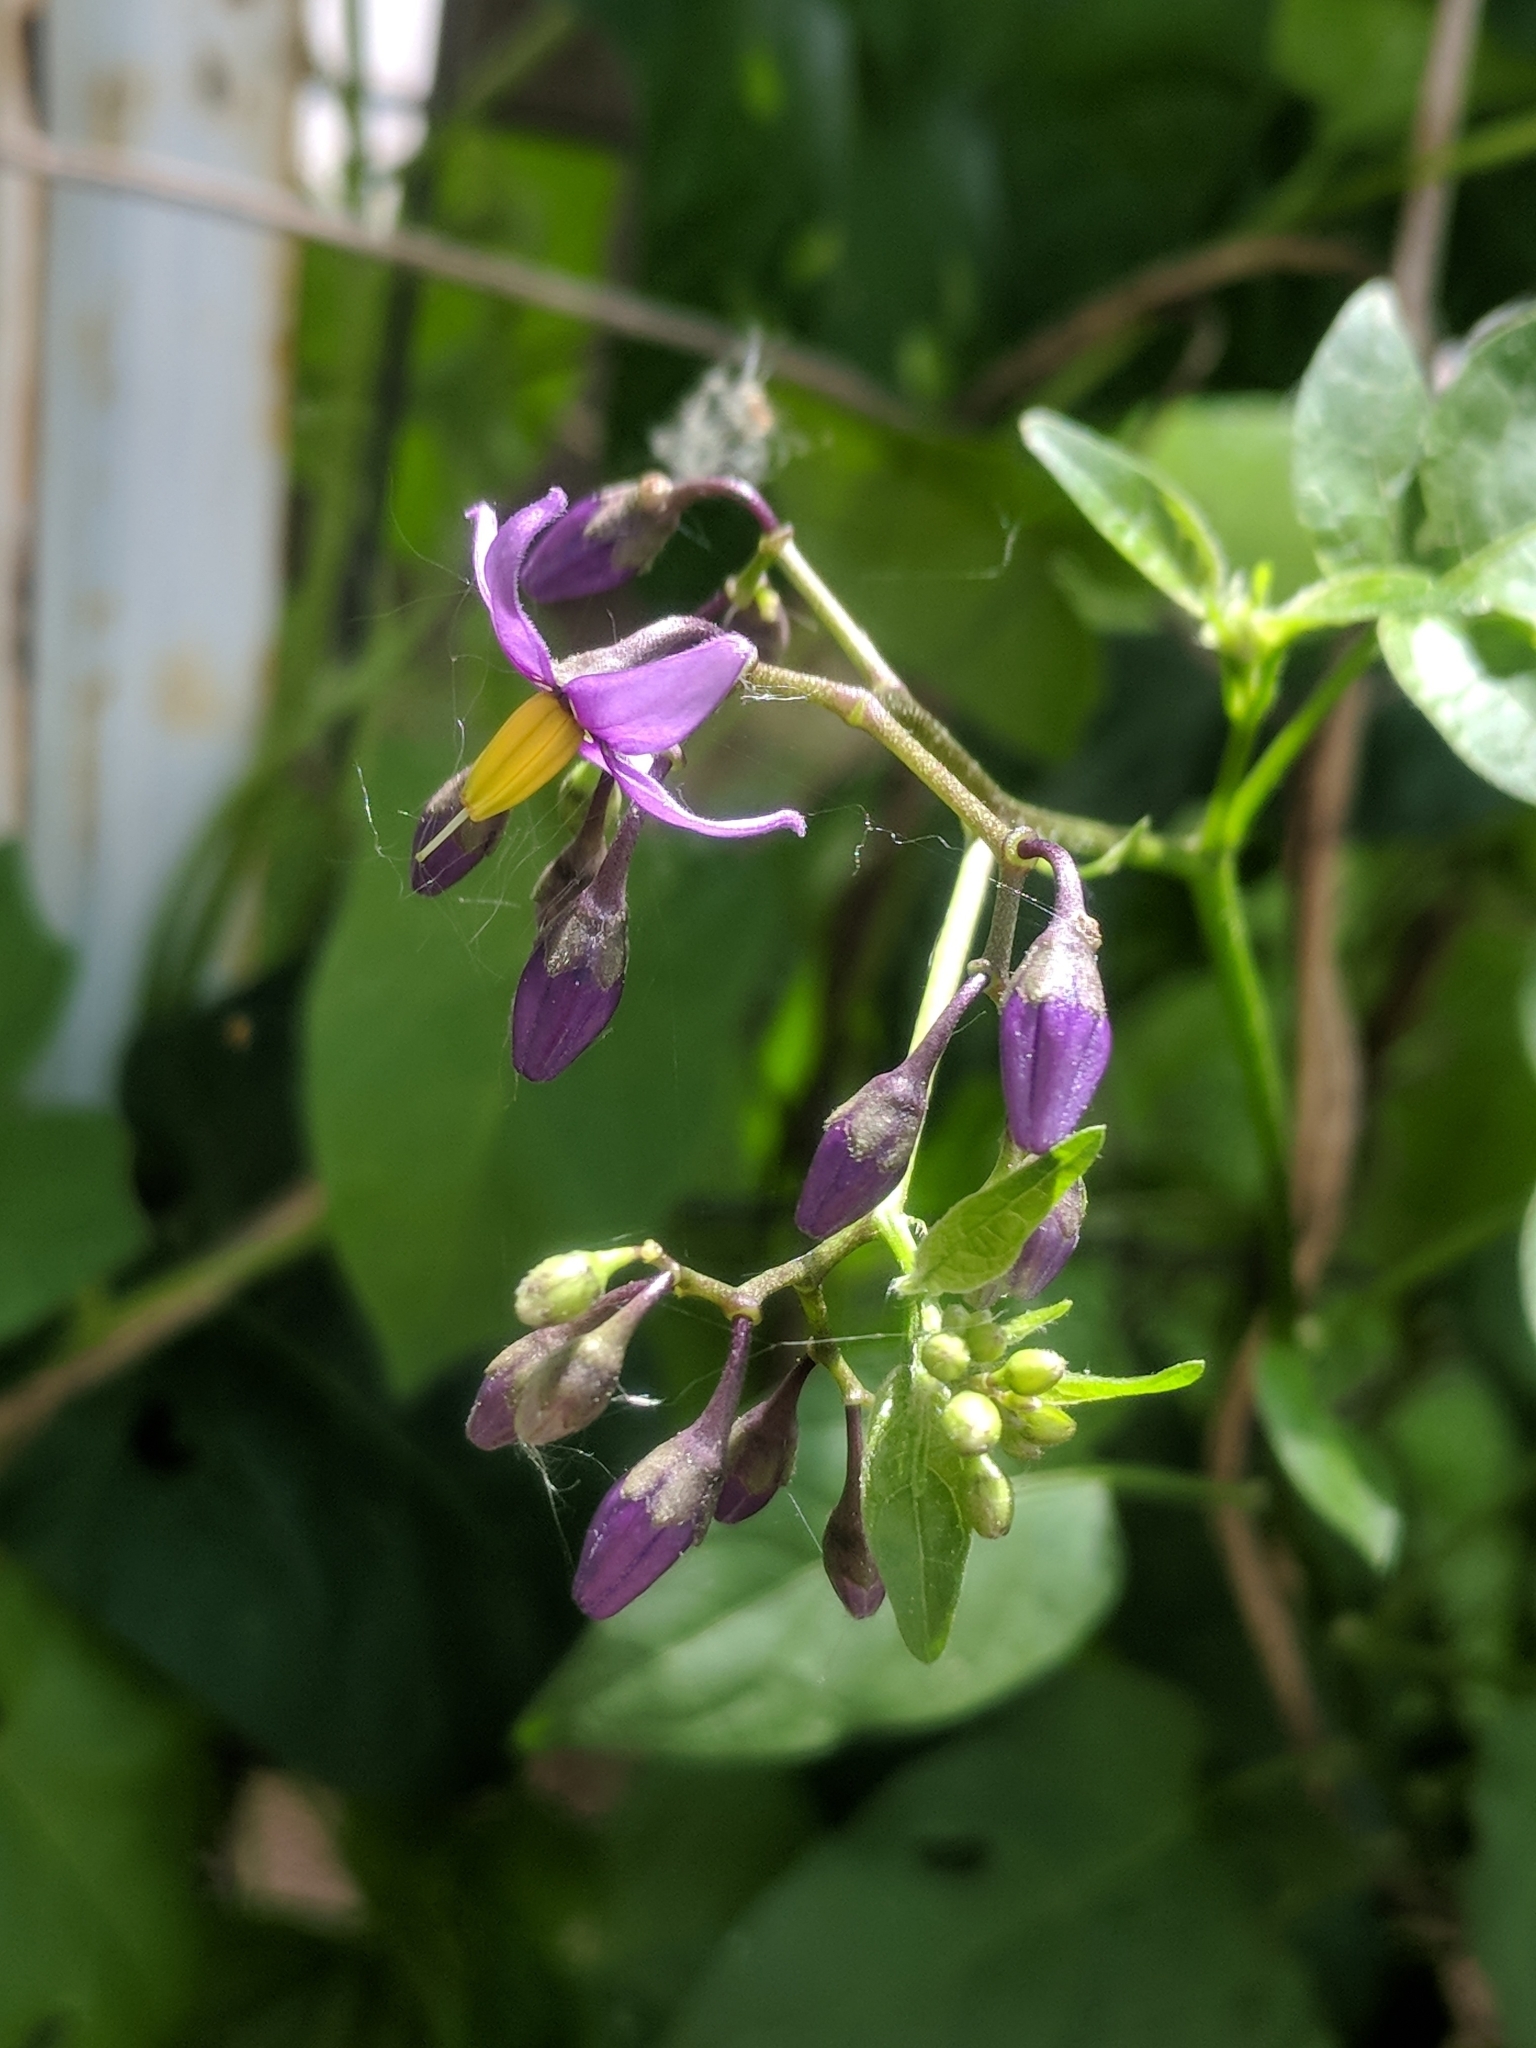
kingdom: Plantae
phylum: Tracheophyta
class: Magnoliopsida
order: Solanales
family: Solanaceae
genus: Solanum
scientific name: Solanum dulcamara
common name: Climbing nightshade
